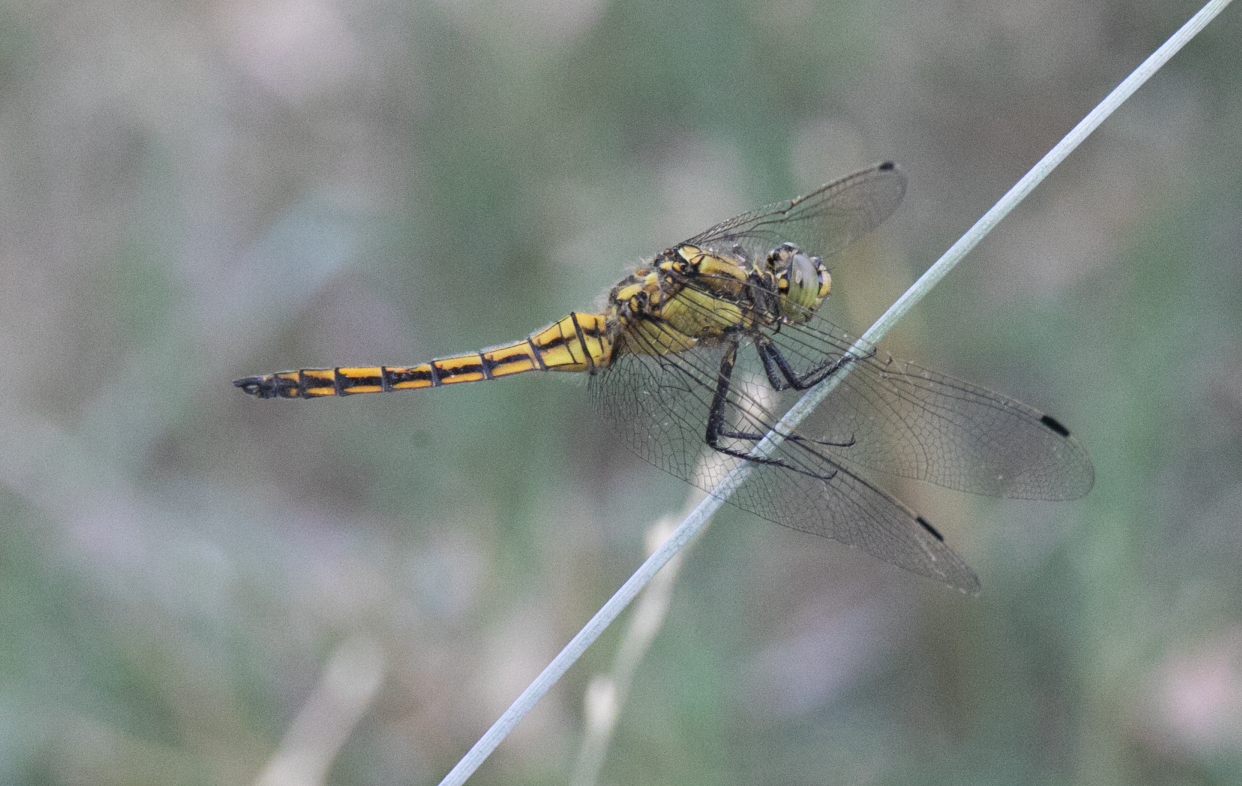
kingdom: Animalia
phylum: Arthropoda
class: Insecta
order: Odonata
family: Libellulidae
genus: Orthetrum
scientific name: Orthetrum cancellatum
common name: Black-tailed skimmer
